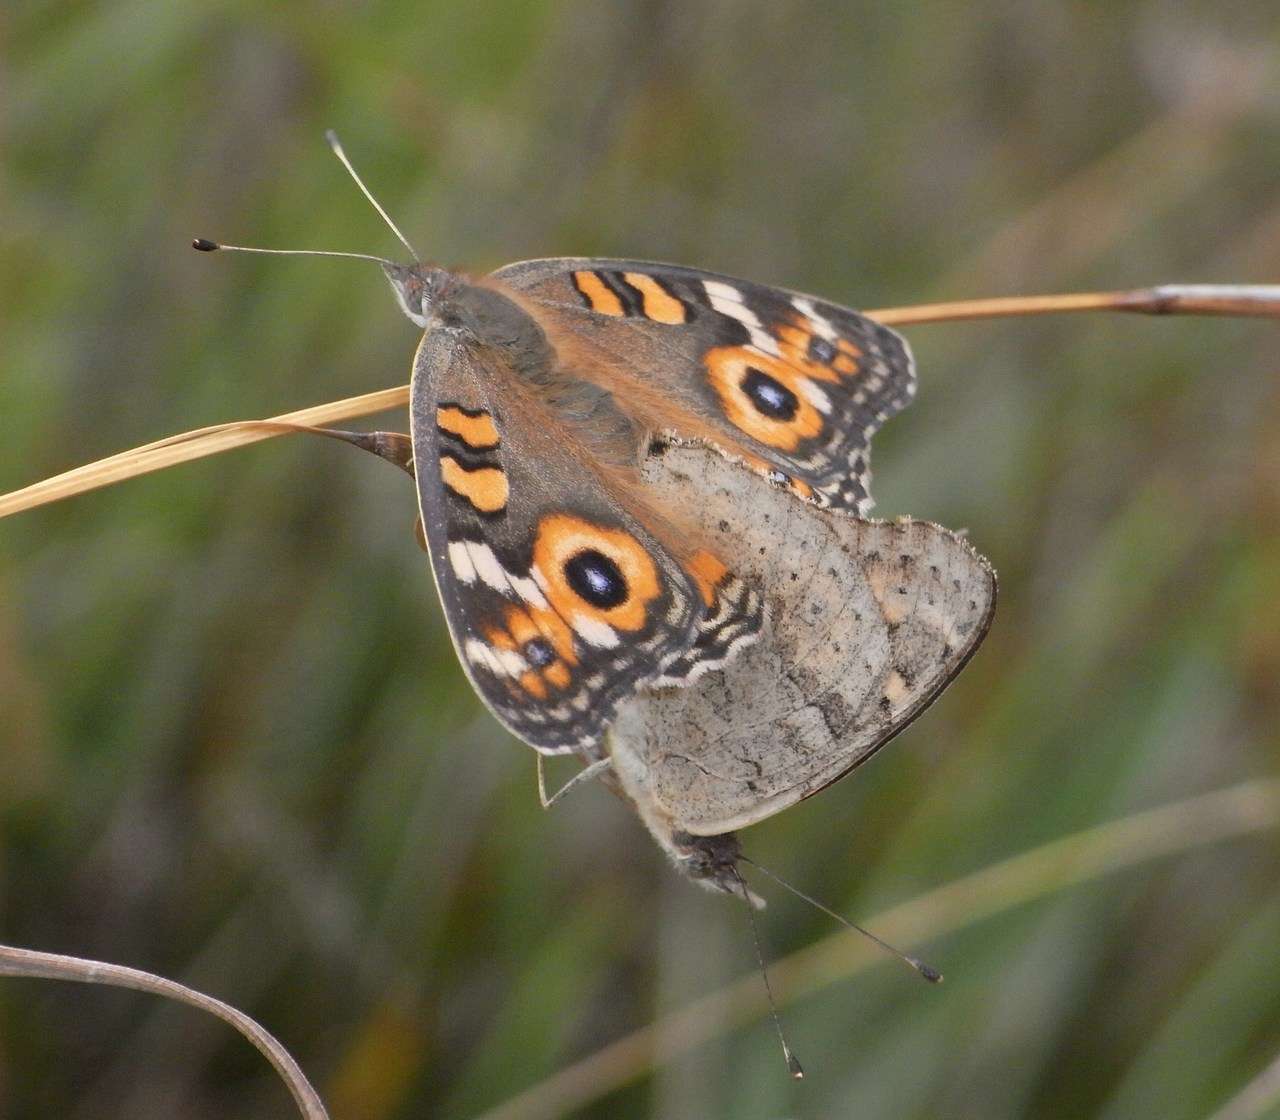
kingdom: Animalia
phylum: Arthropoda
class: Insecta
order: Lepidoptera
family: Nymphalidae
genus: Junonia
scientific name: Junonia villida
